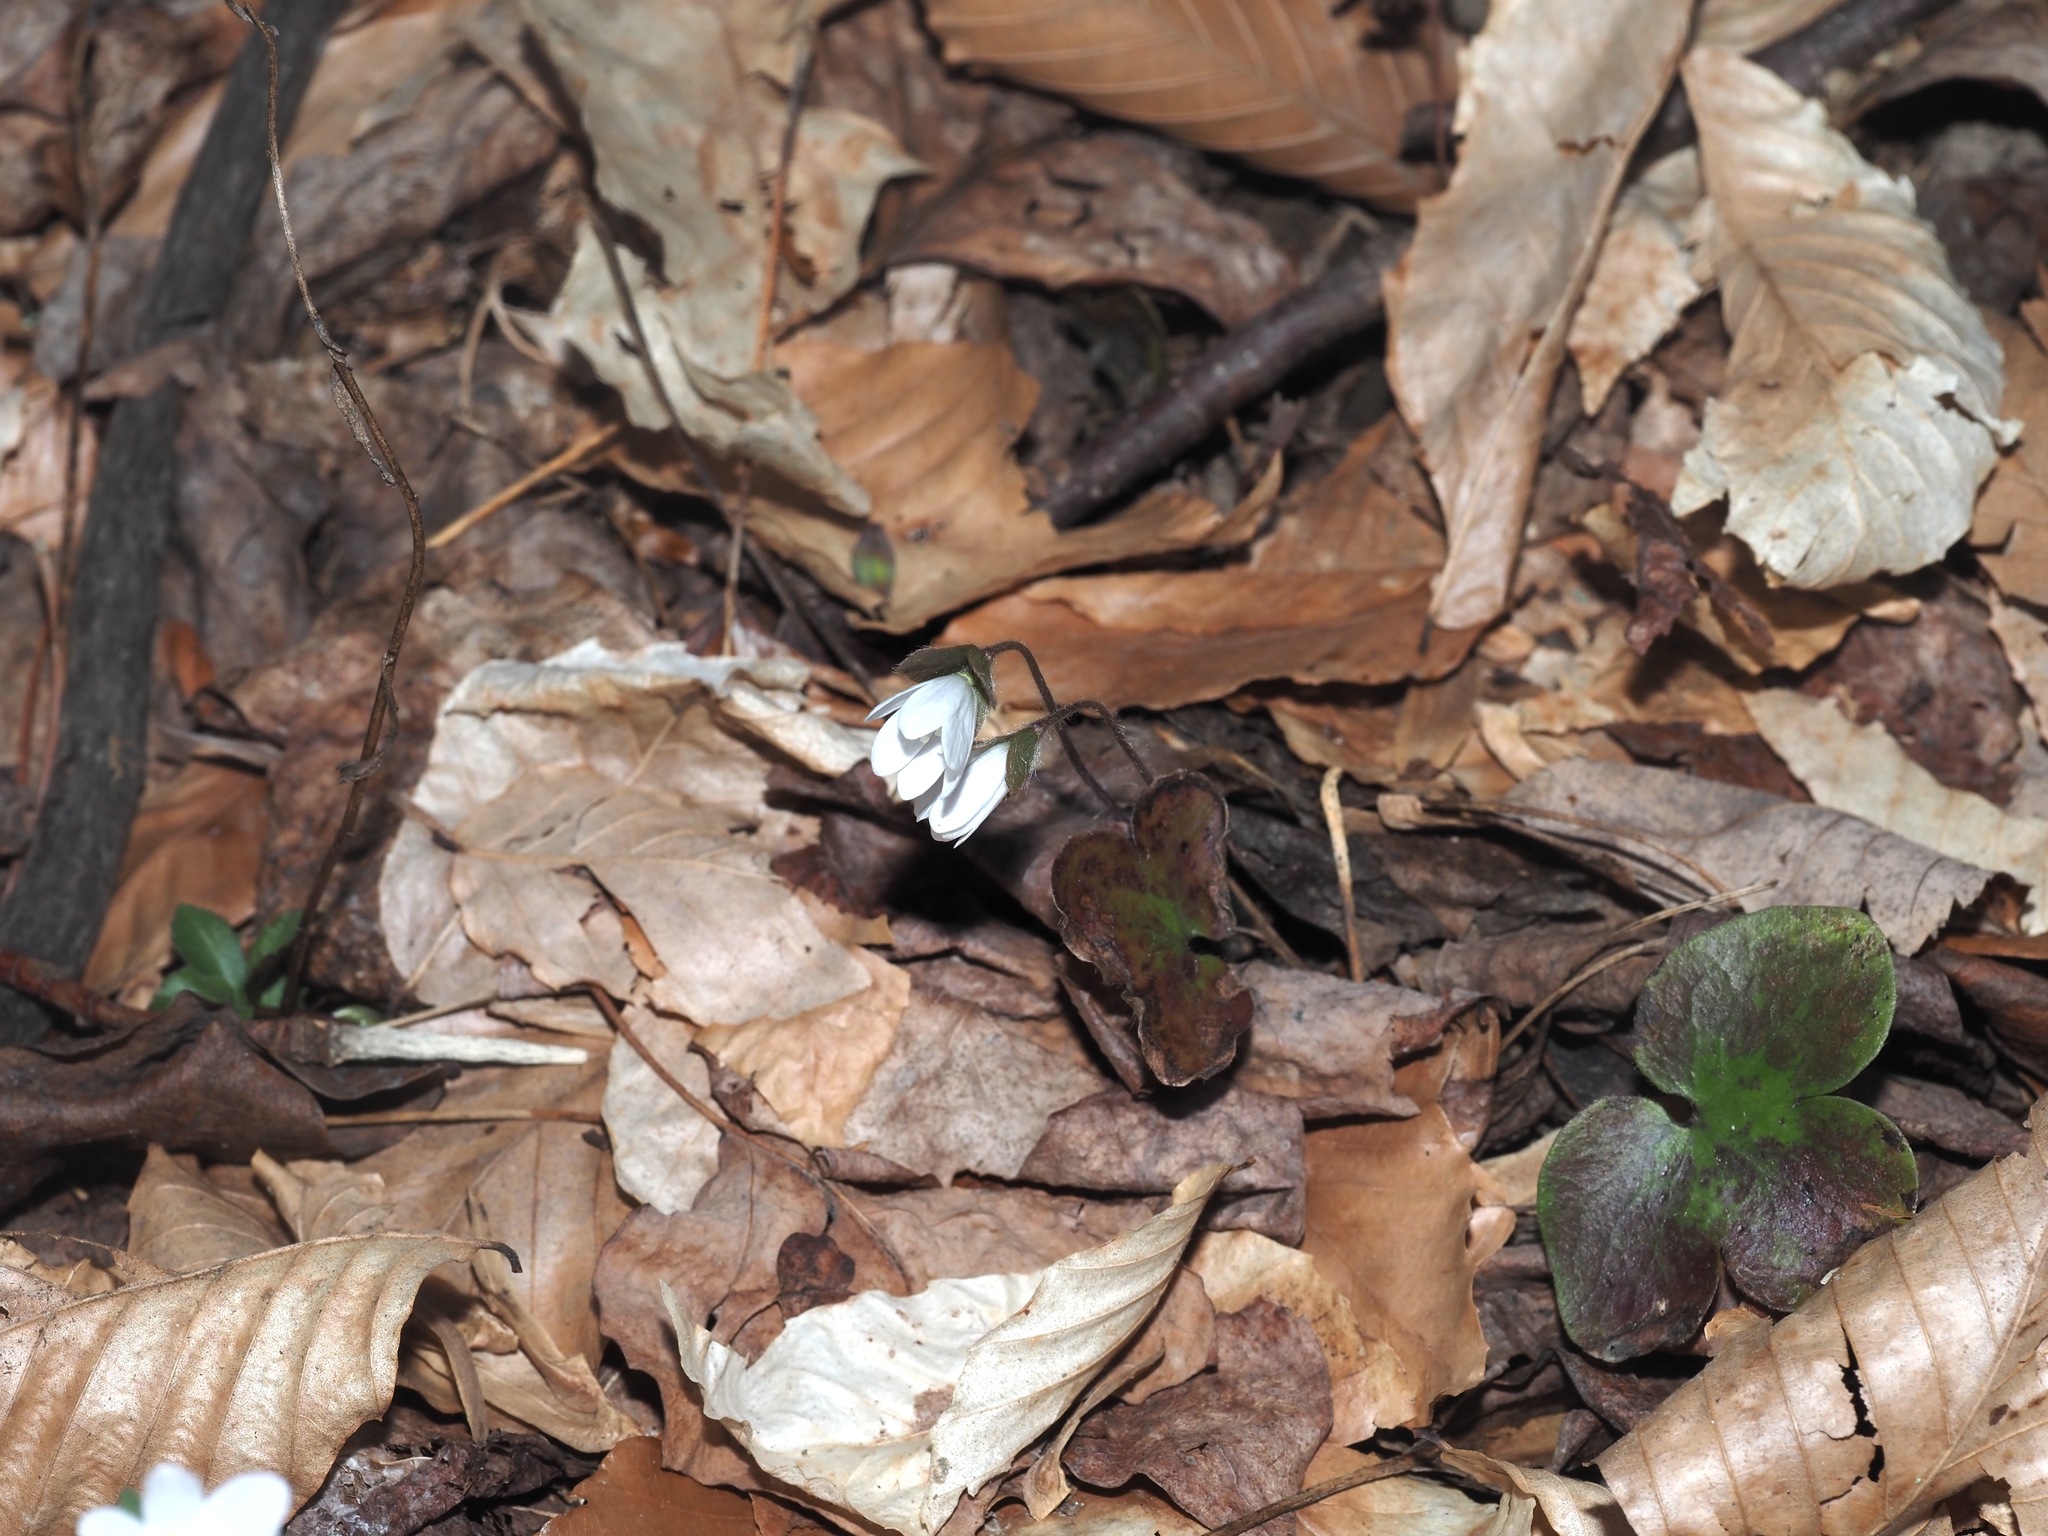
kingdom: Plantae
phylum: Tracheophyta
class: Magnoliopsida
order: Ranunculales
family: Ranunculaceae
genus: Hepatica
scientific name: Hepatica americana
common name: American hepatica
